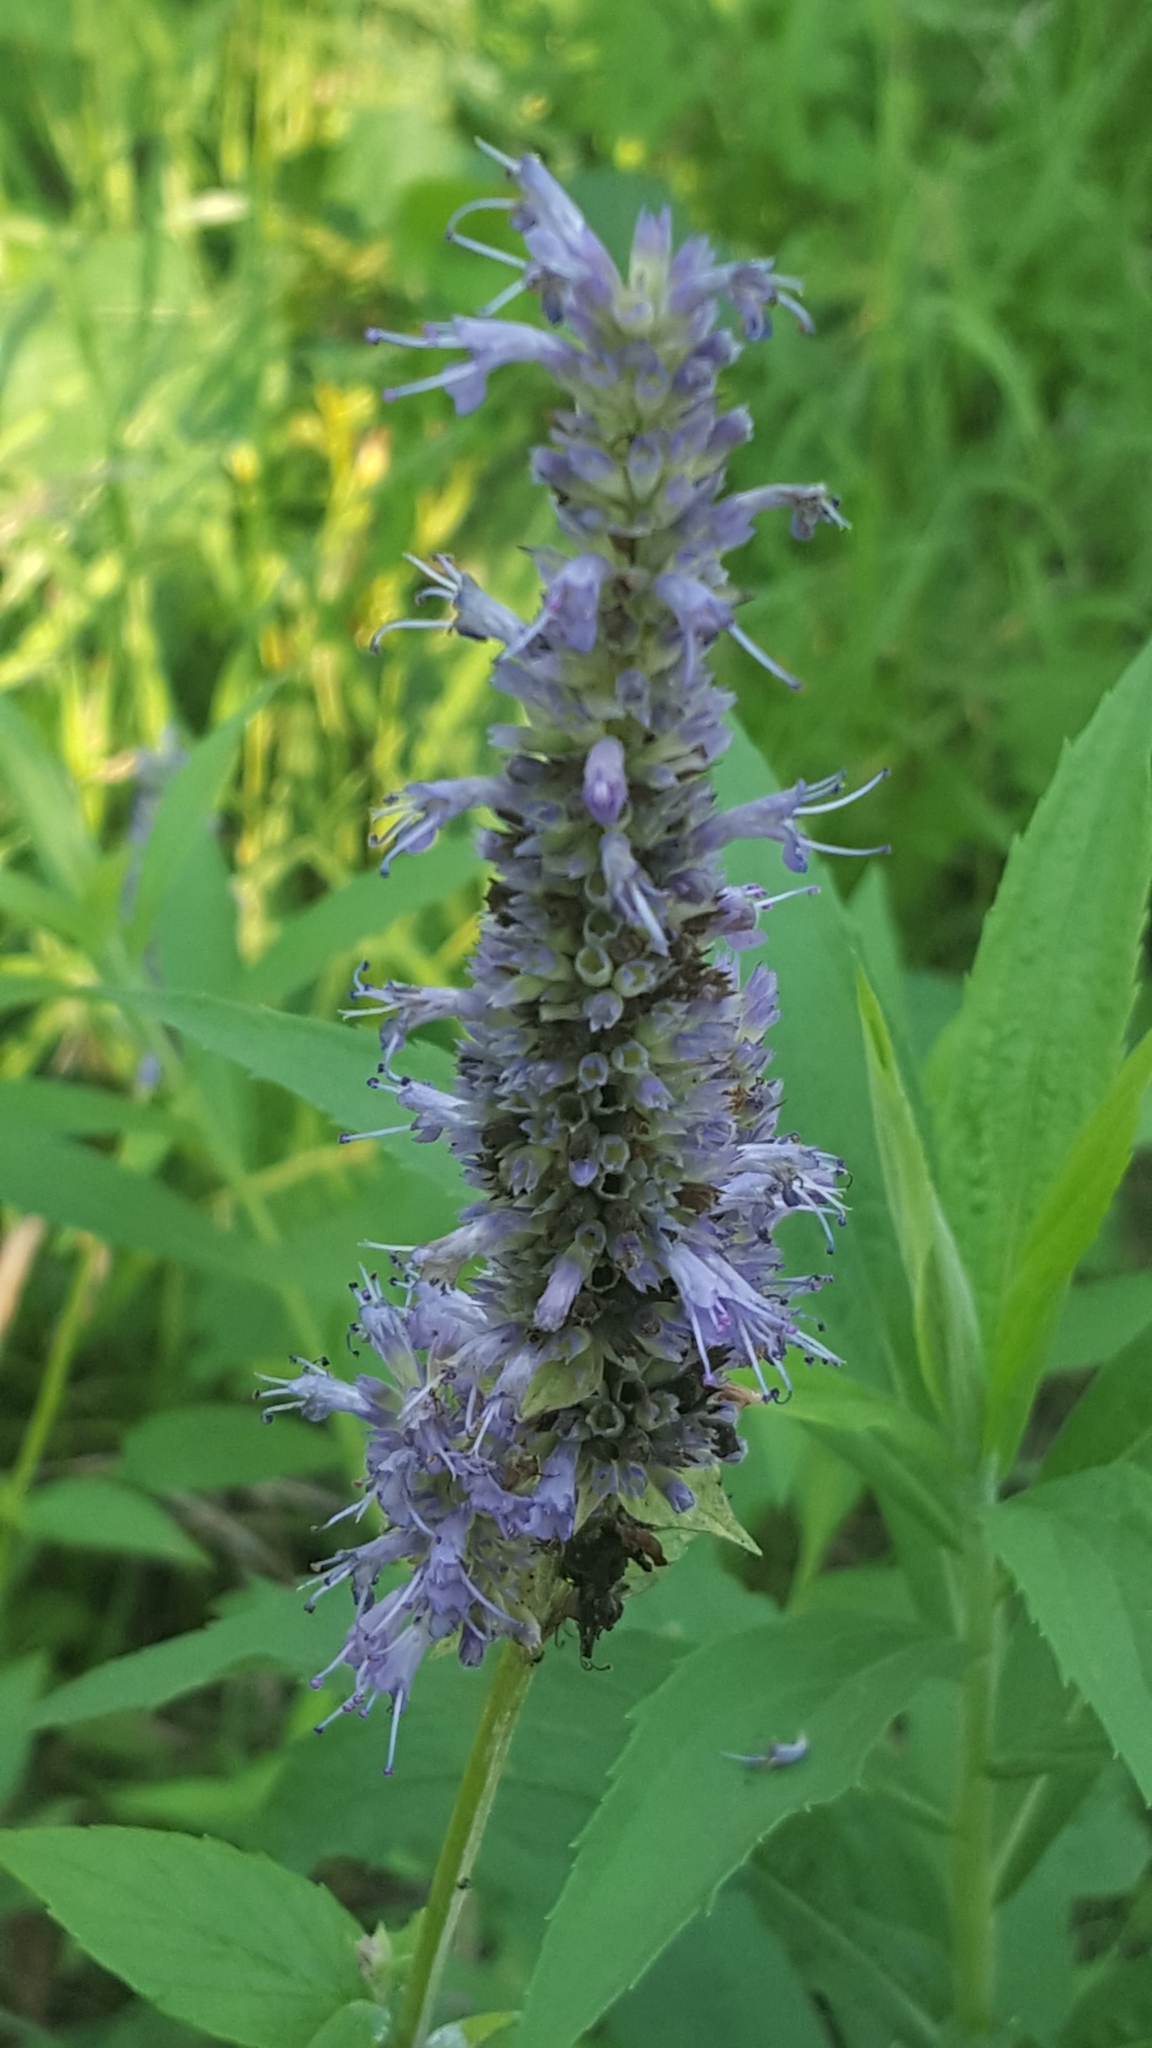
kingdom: Plantae
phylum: Tracheophyta
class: Magnoliopsida
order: Lamiales
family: Lamiaceae
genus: Agastache
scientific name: Agastache foeniculum
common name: Anise hyssop
